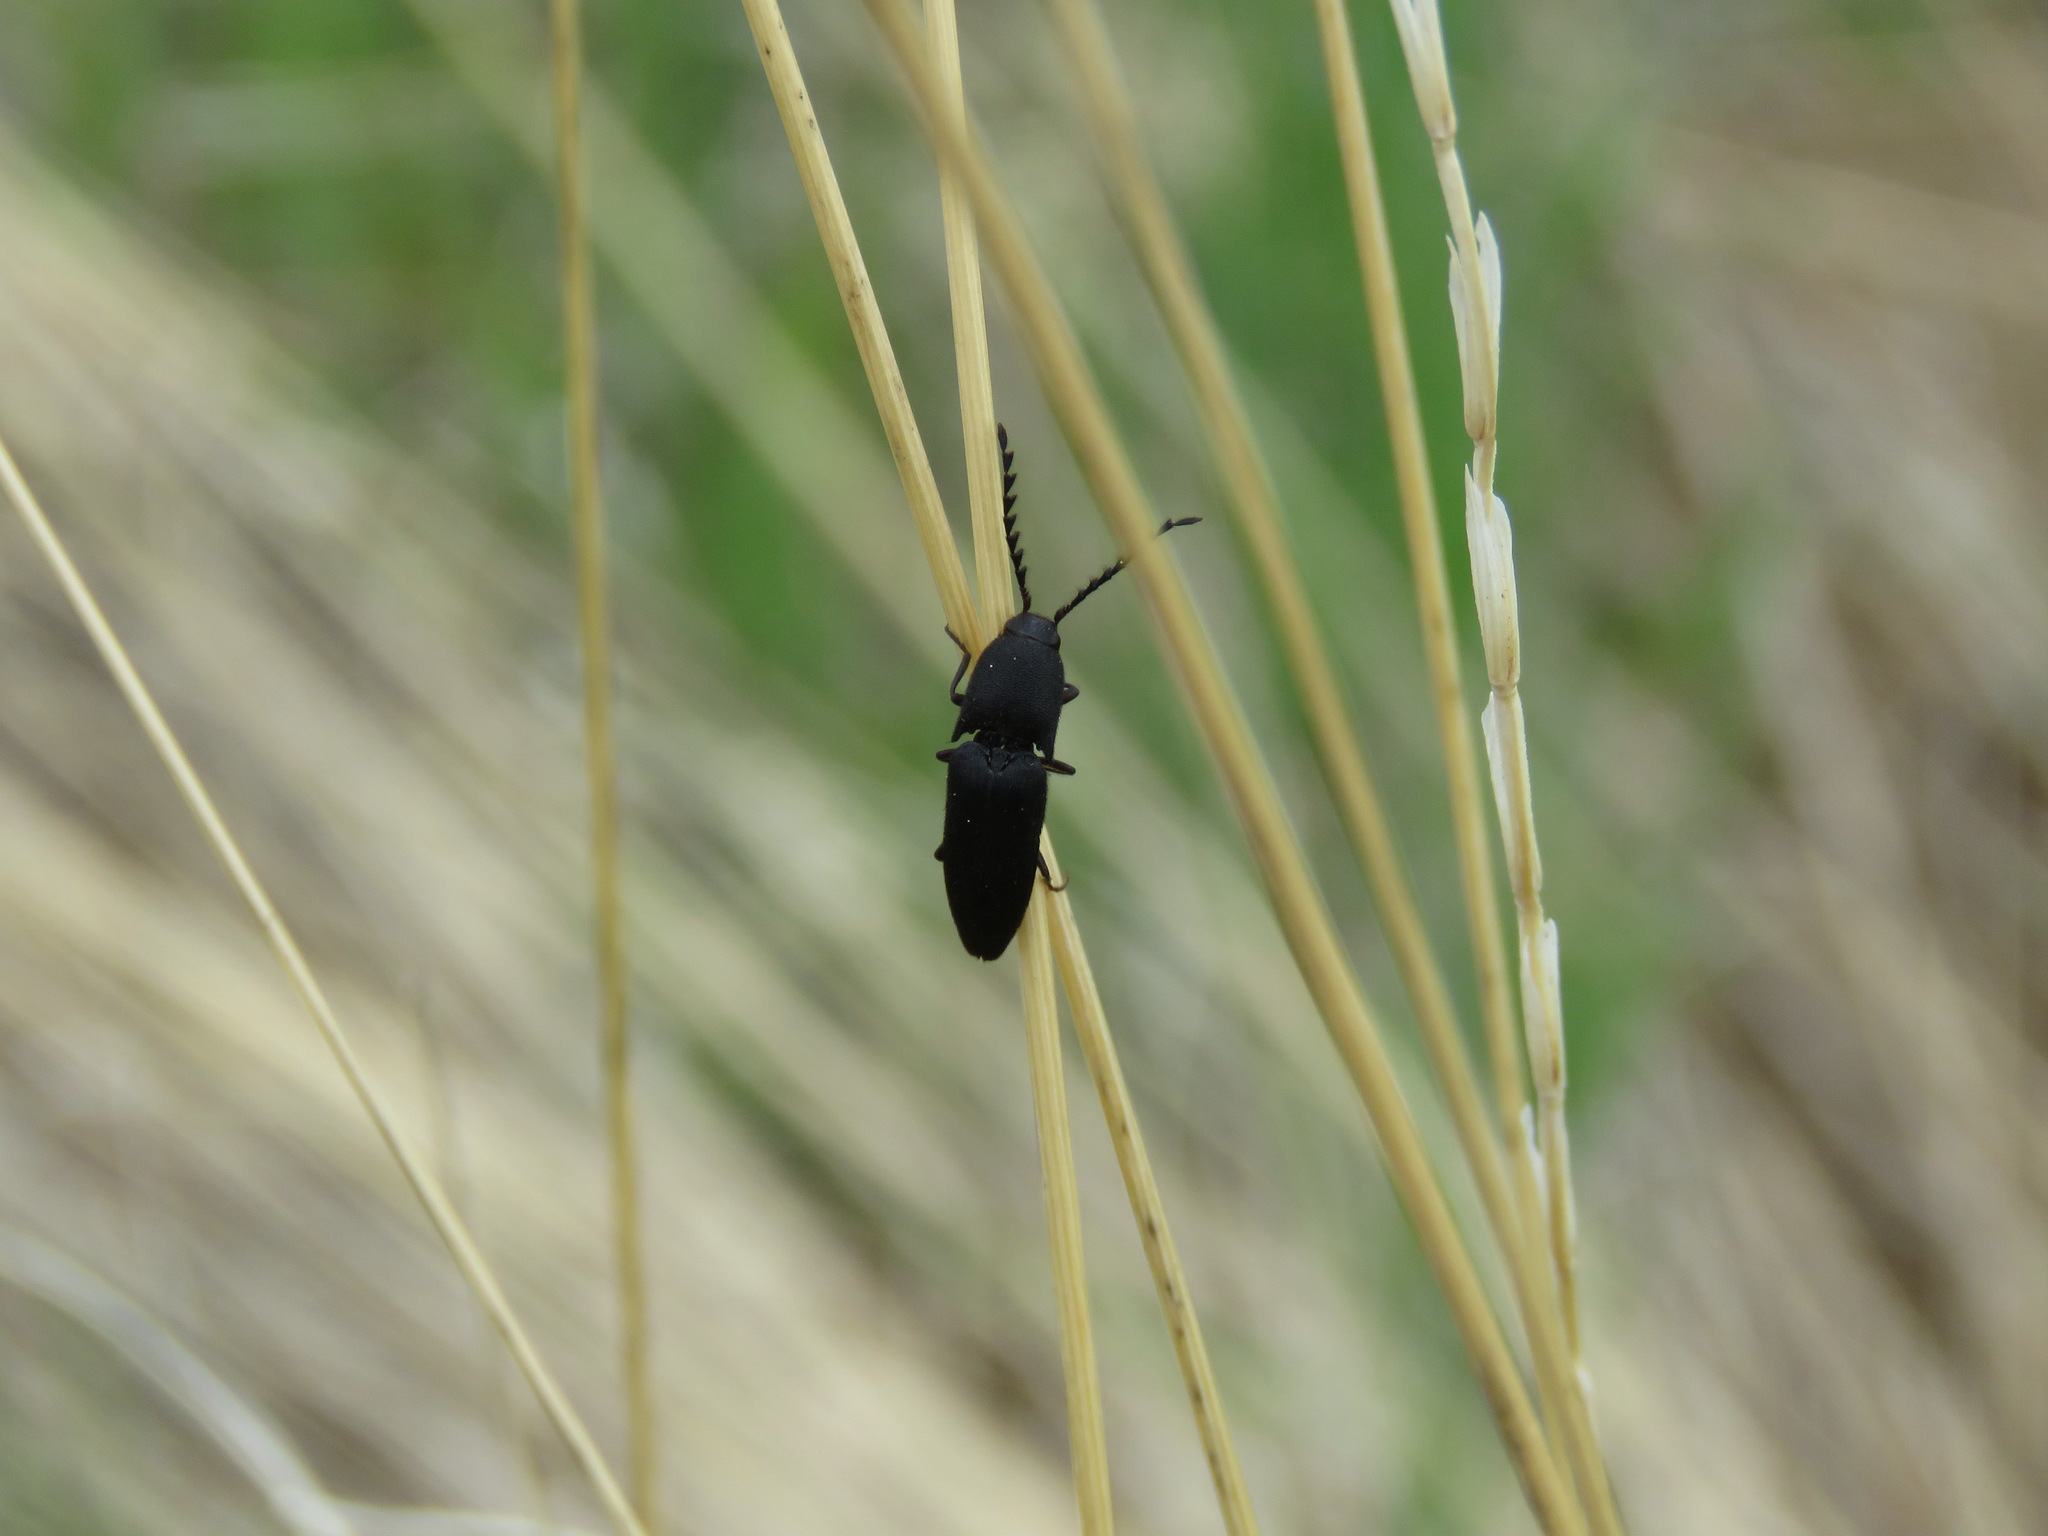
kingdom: Animalia
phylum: Arthropoda
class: Insecta
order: Coleoptera
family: Elateridae
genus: Megapenthes
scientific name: Megapenthes tartareus
